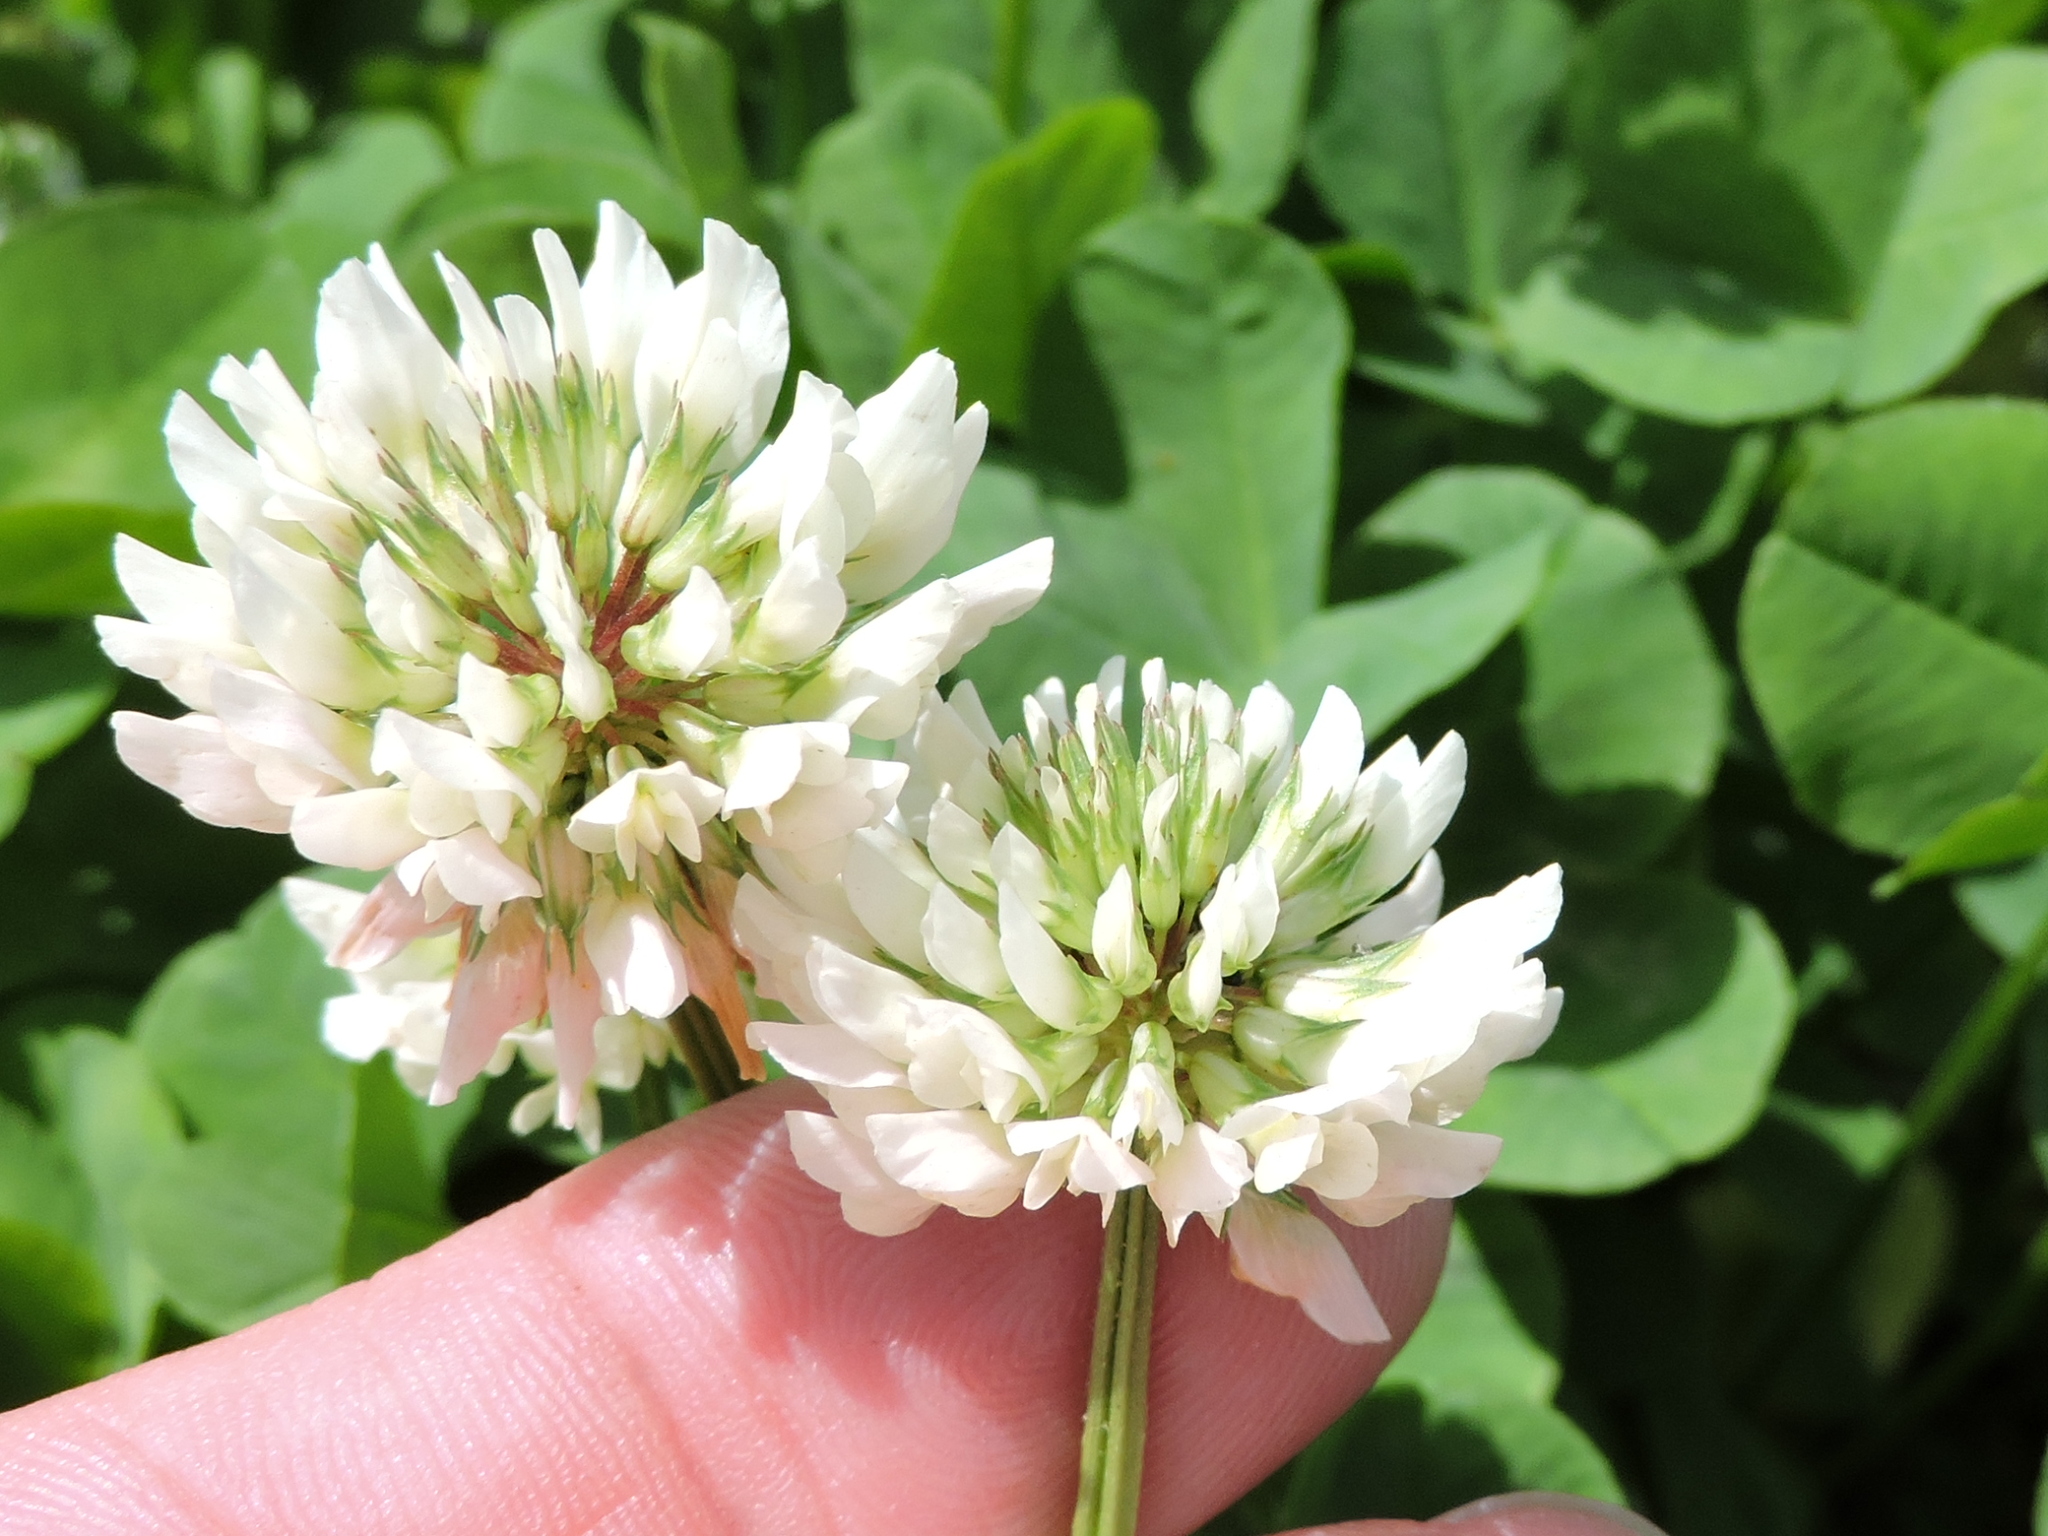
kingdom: Plantae
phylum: Tracheophyta
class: Magnoliopsida
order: Fabales
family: Fabaceae
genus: Trifolium
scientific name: Trifolium repens
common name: White clover
